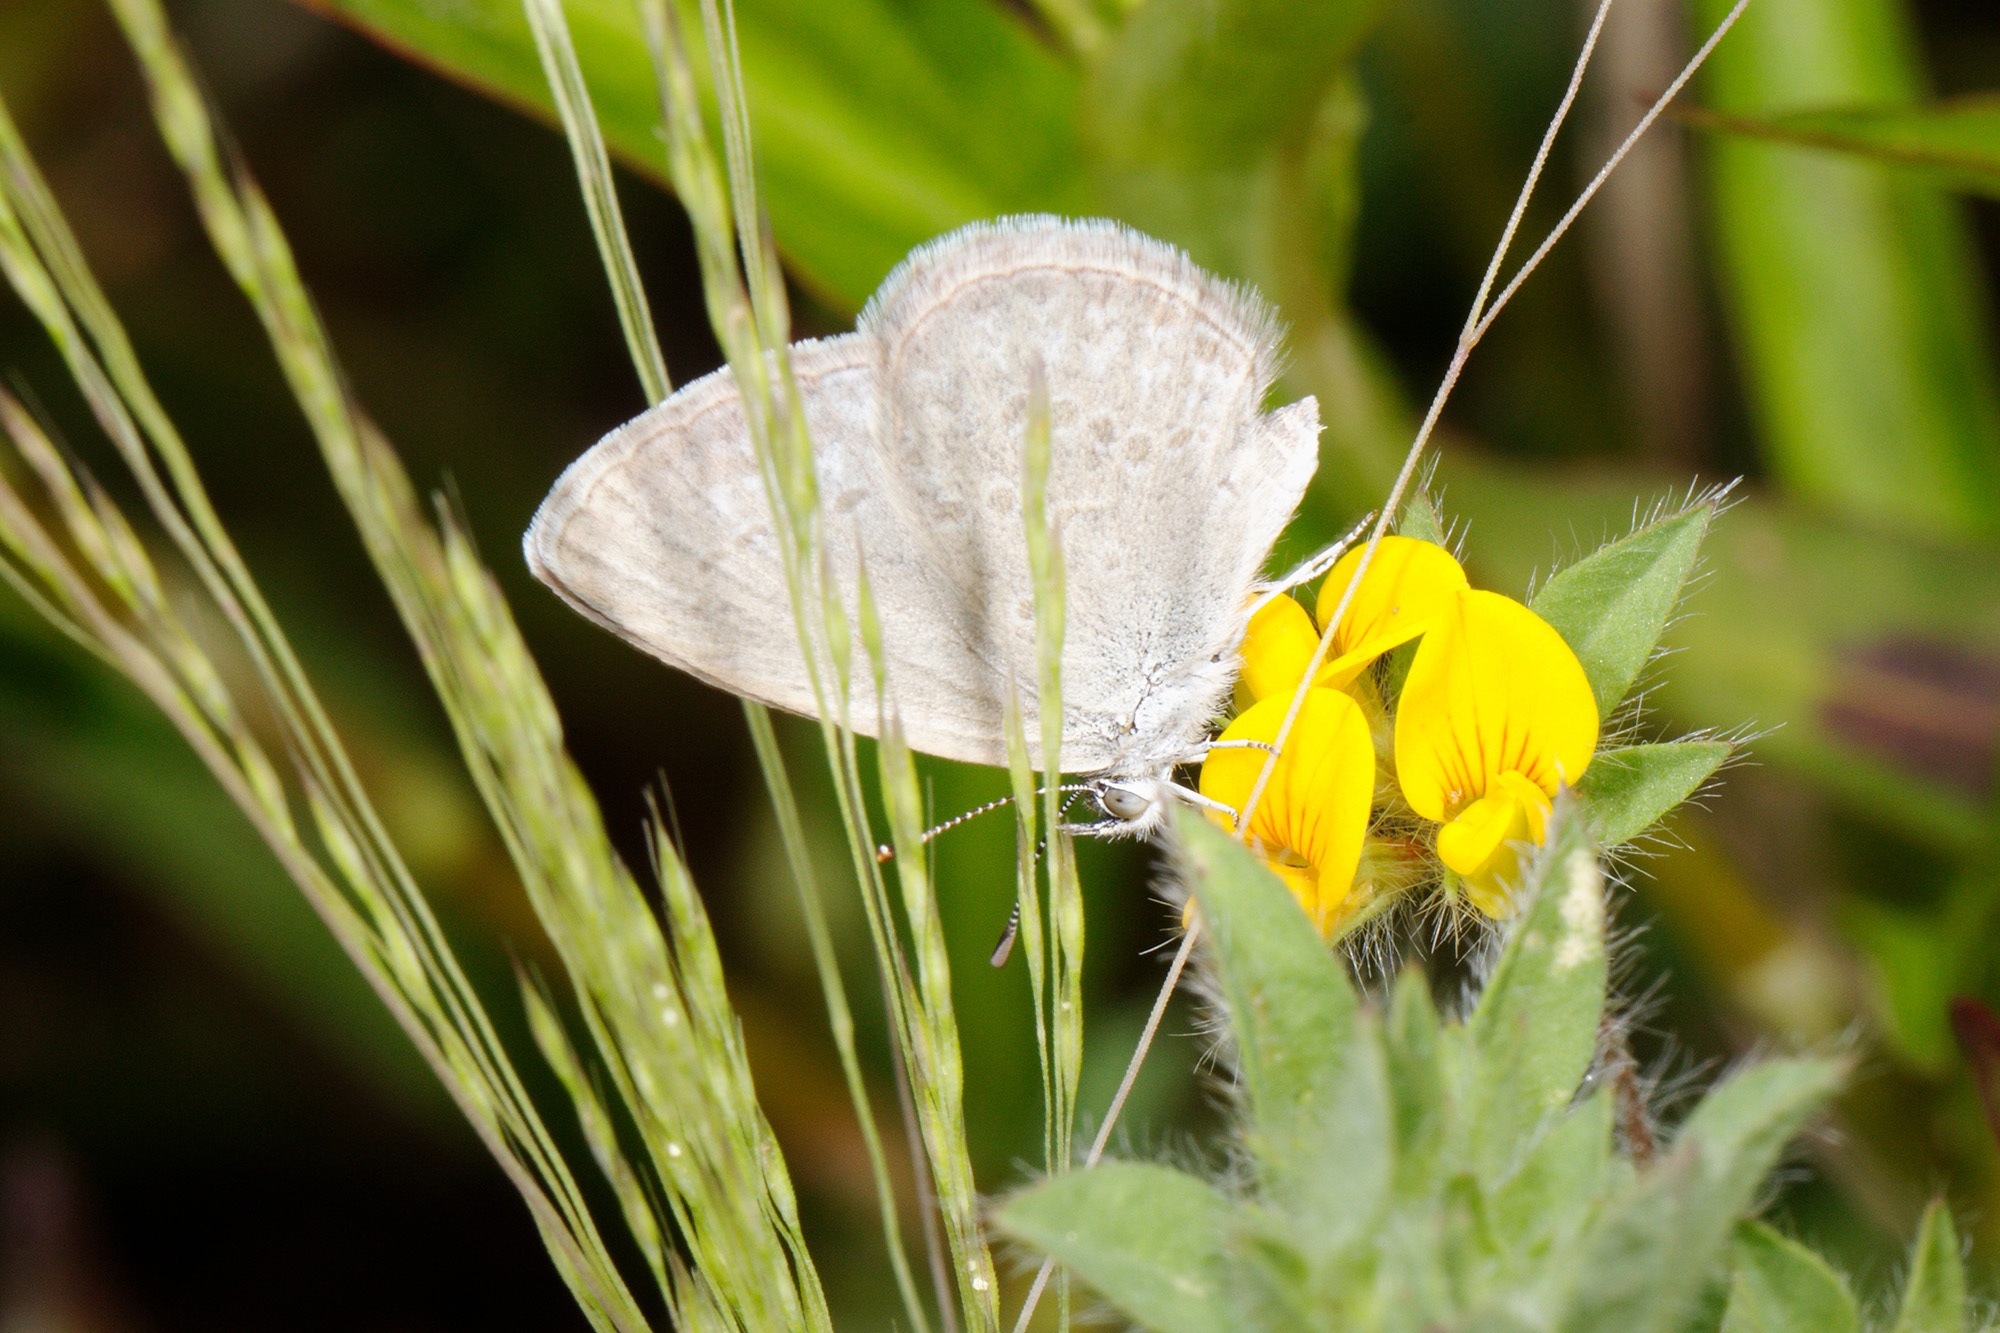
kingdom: Animalia
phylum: Arthropoda
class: Insecta
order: Lepidoptera
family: Lycaenidae
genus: Zizina
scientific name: Zizina labradus
